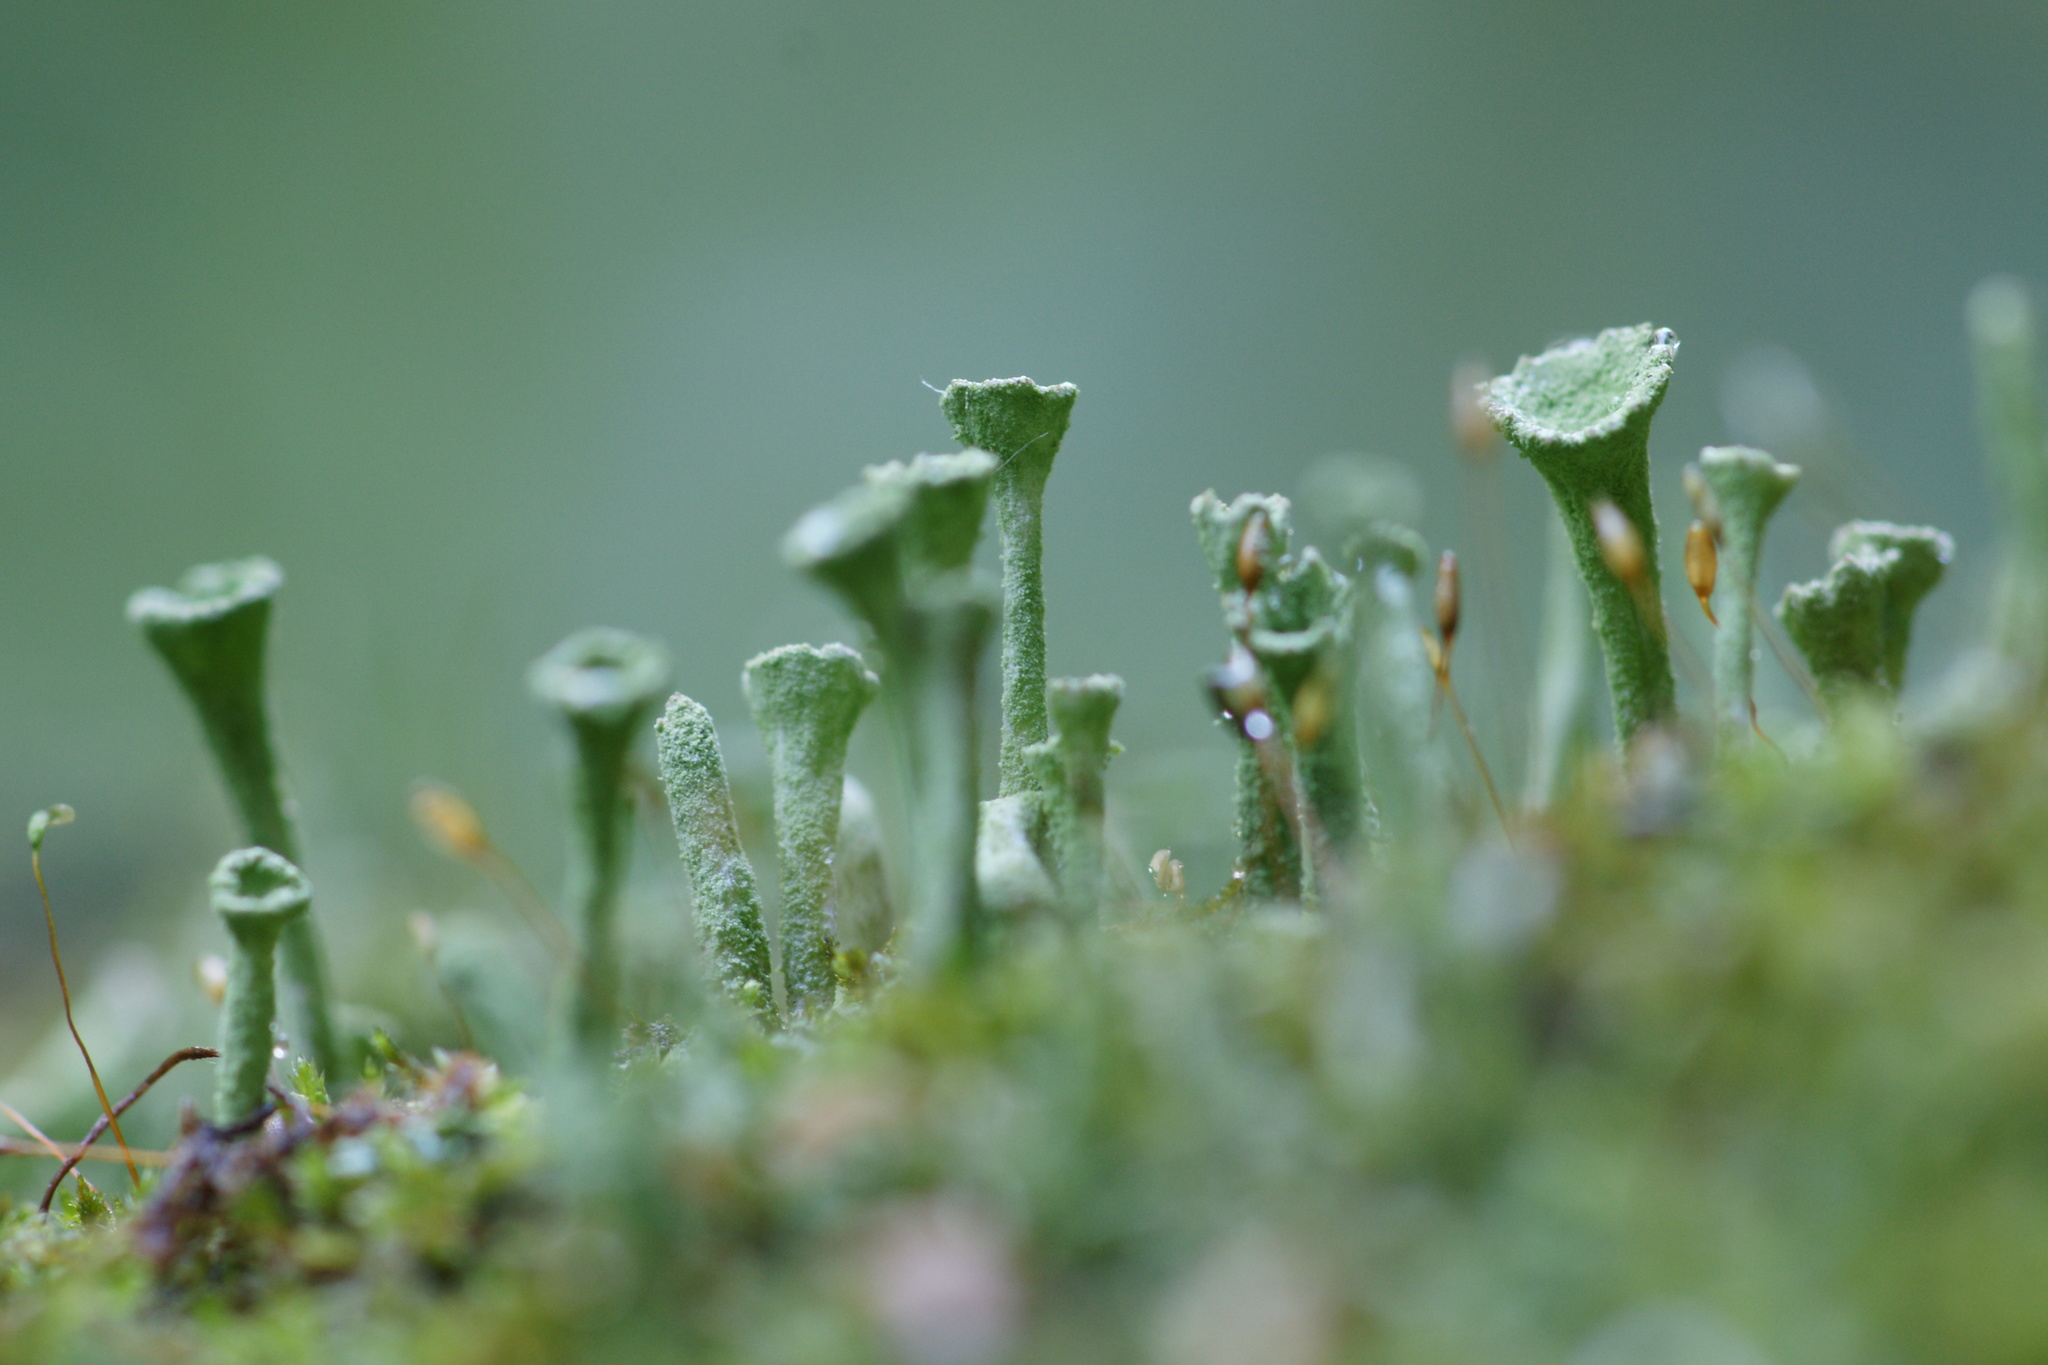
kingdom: Fungi
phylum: Ascomycota
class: Lecanoromycetes
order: Lecanorales
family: Cladoniaceae
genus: Cladonia
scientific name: Cladonia fimbriata
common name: Powdered trumpet lichen
